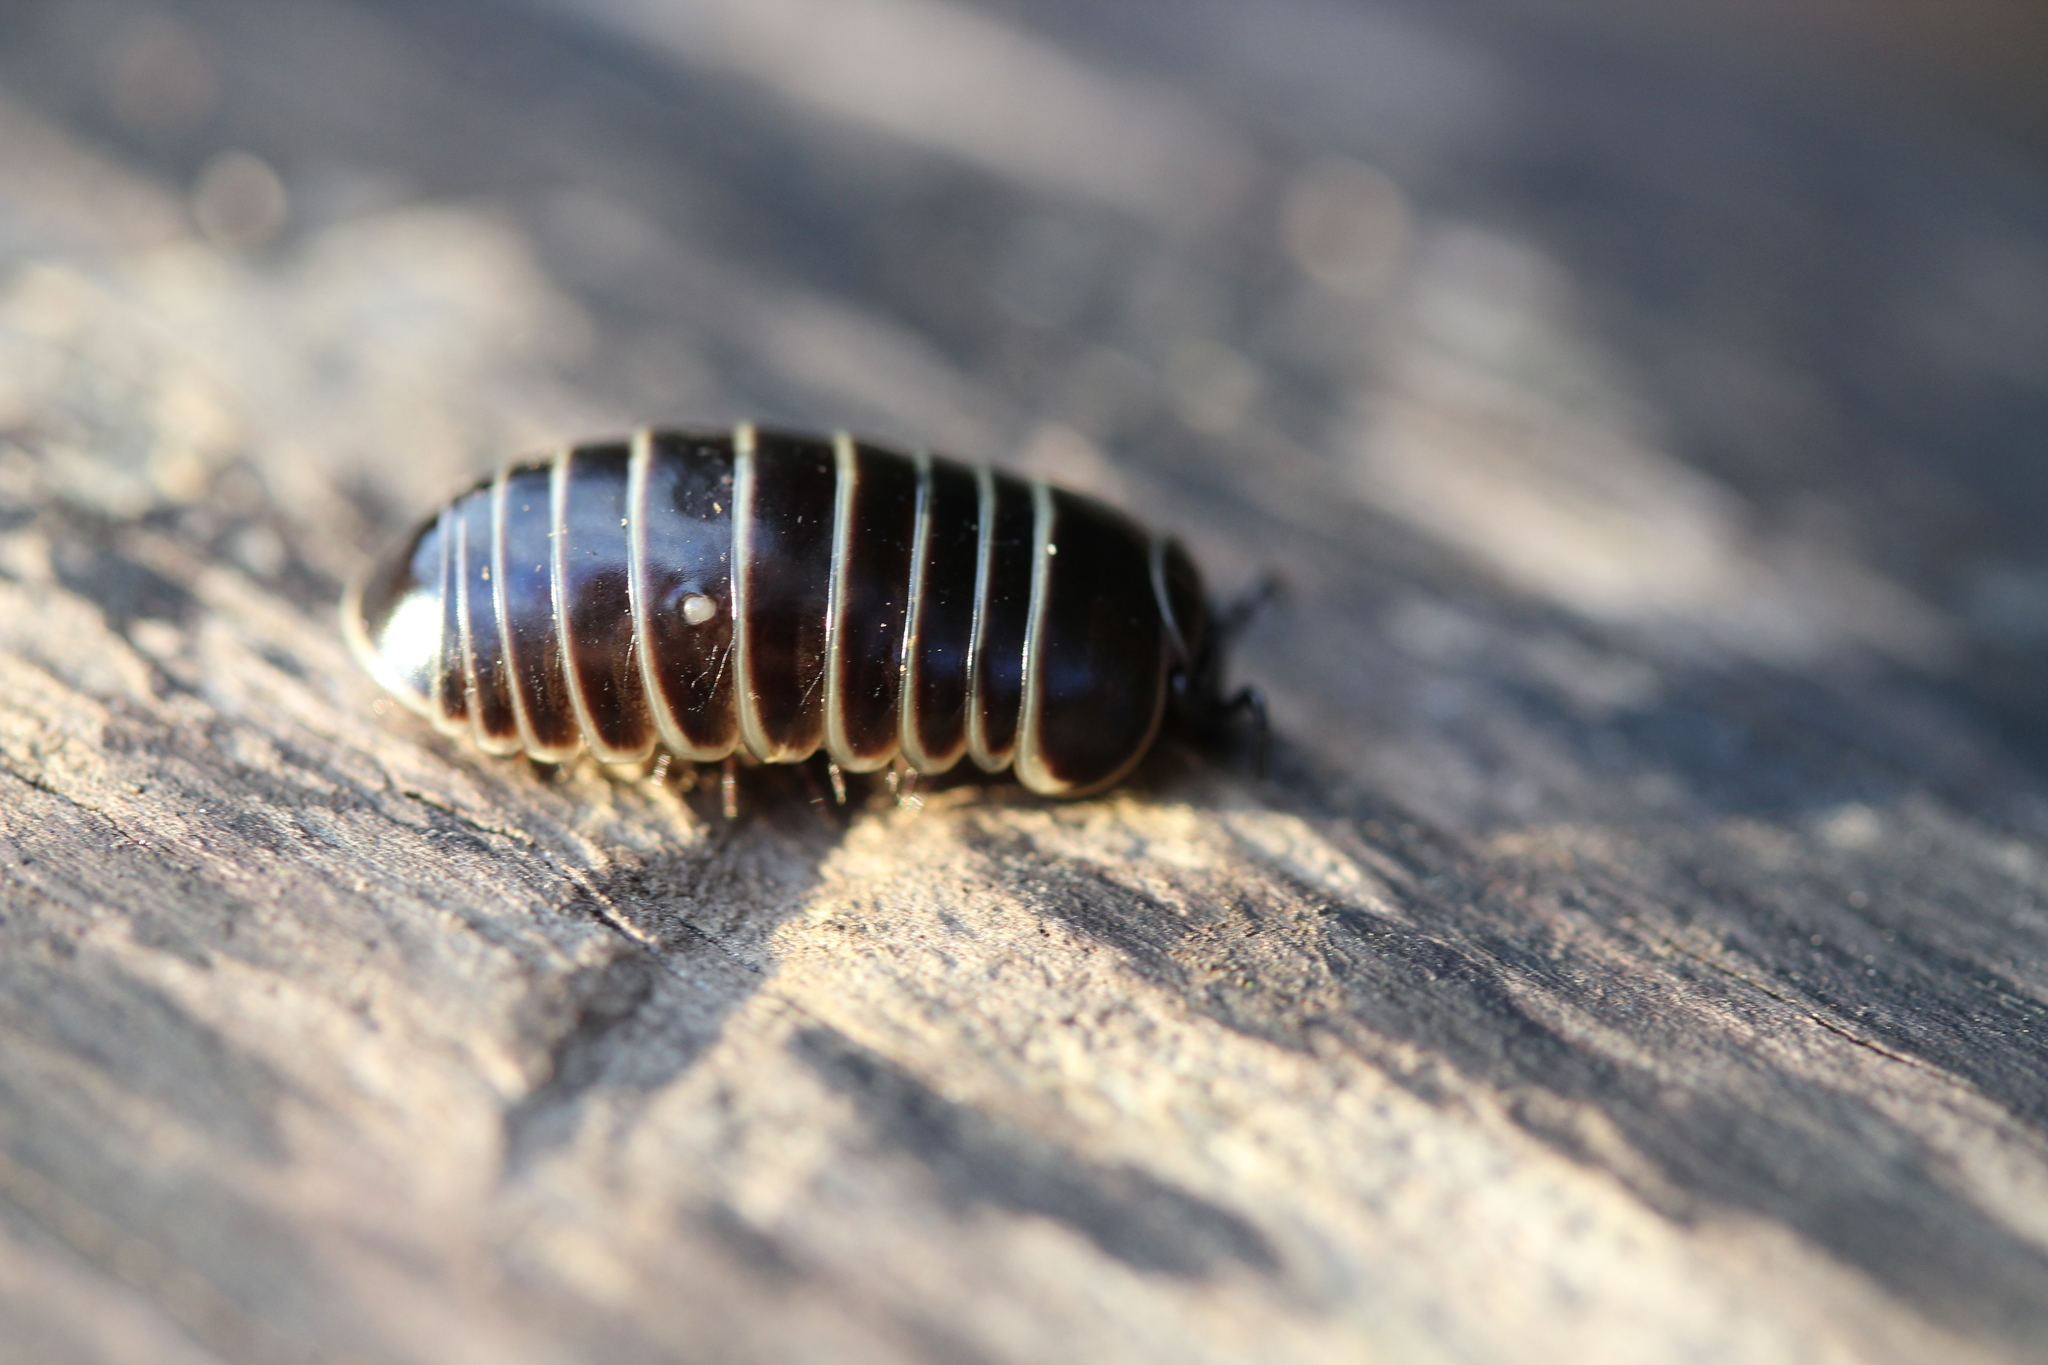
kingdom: Animalia
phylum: Arthropoda
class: Diplopoda
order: Glomerida
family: Glomeridae
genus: Glomeris
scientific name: Glomeris marginata
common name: Bordered pill millipede
